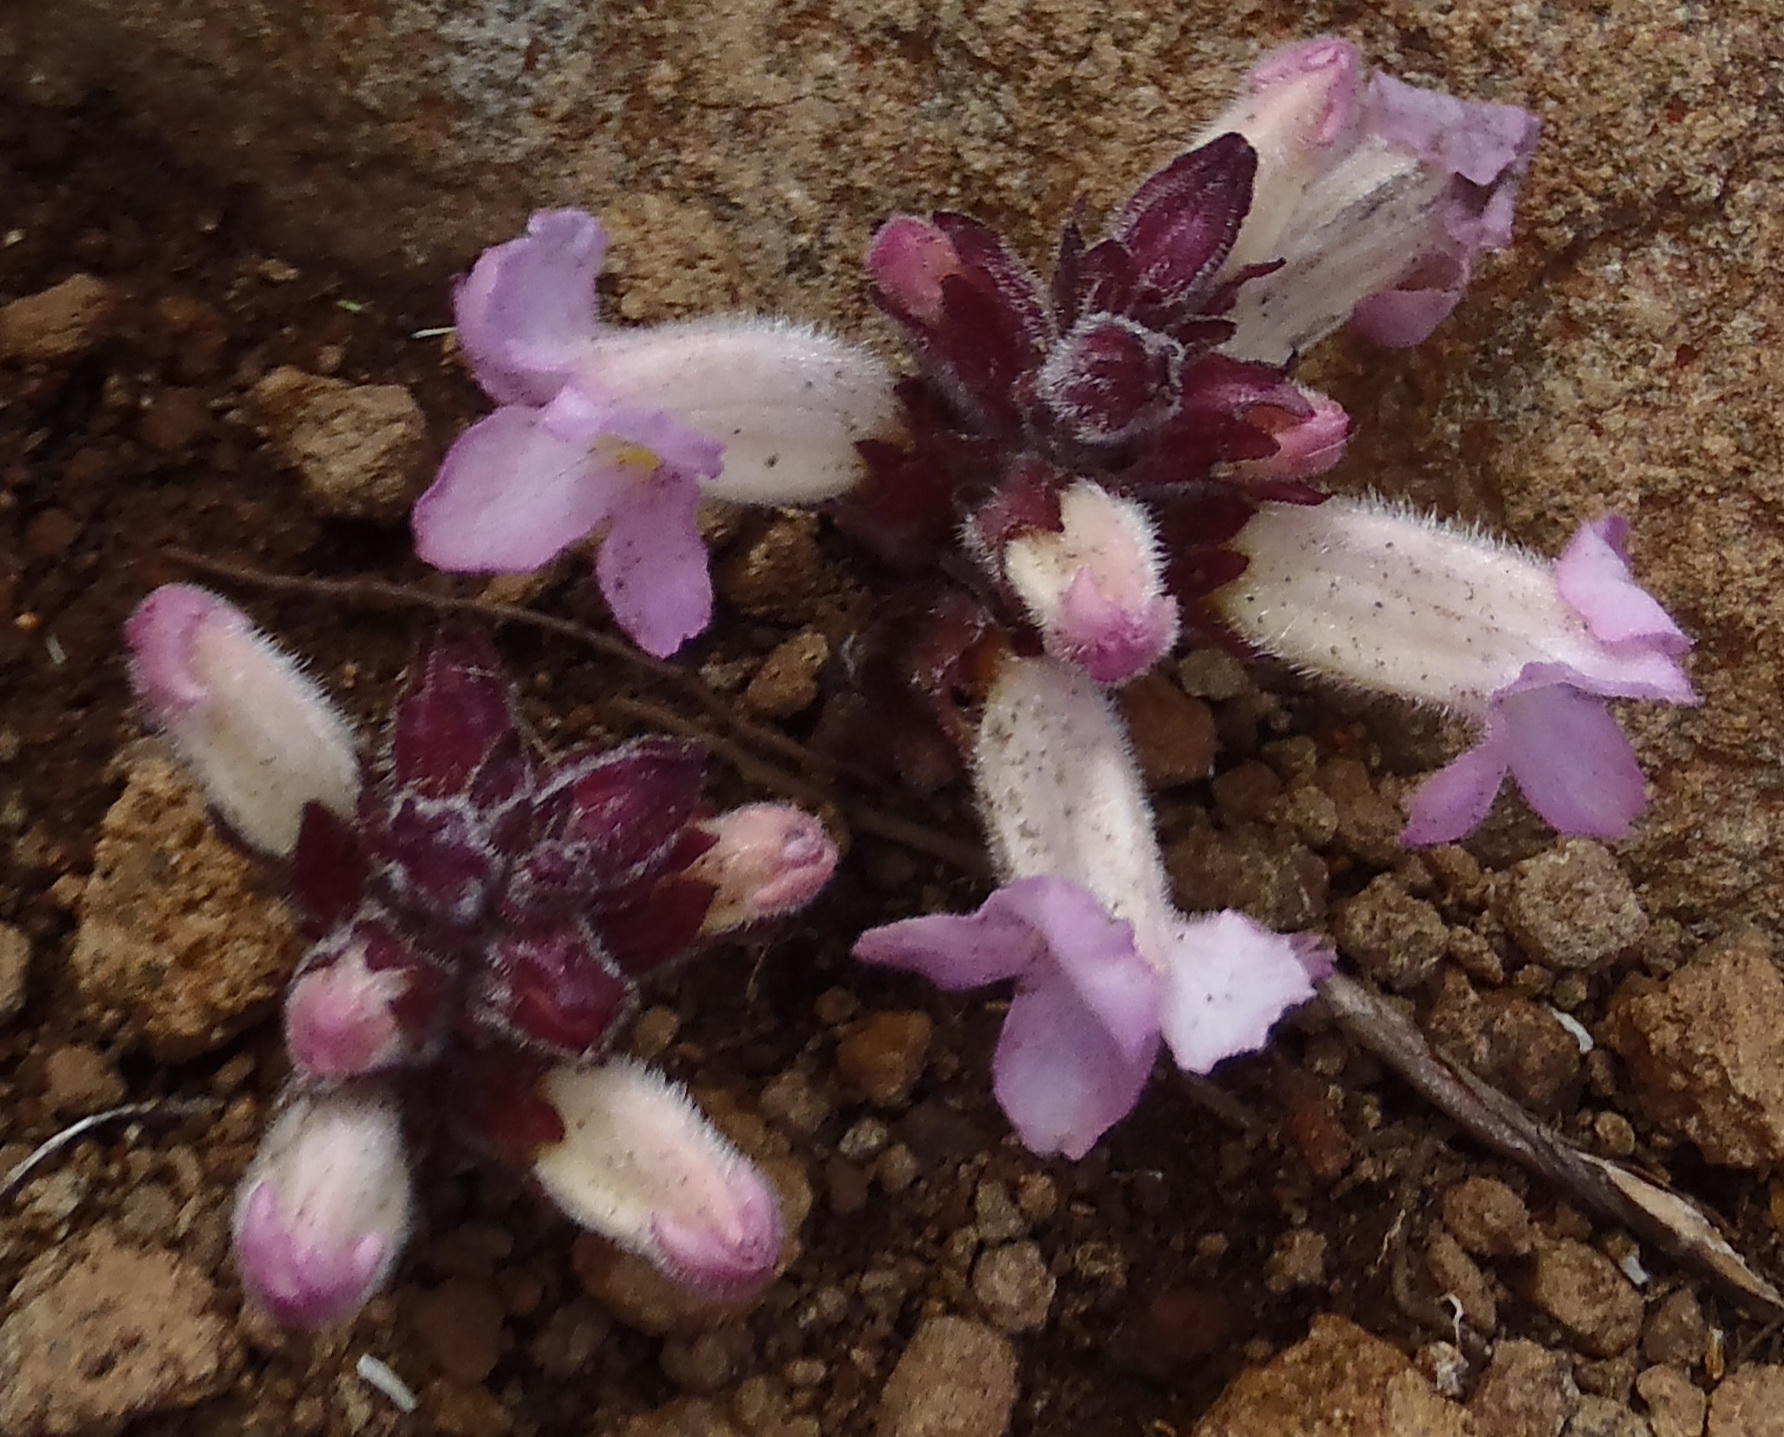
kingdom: Plantae
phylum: Tracheophyta
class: Magnoliopsida
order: Lamiales
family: Orobanchaceae
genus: Harveya
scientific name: Harveya purpurea
